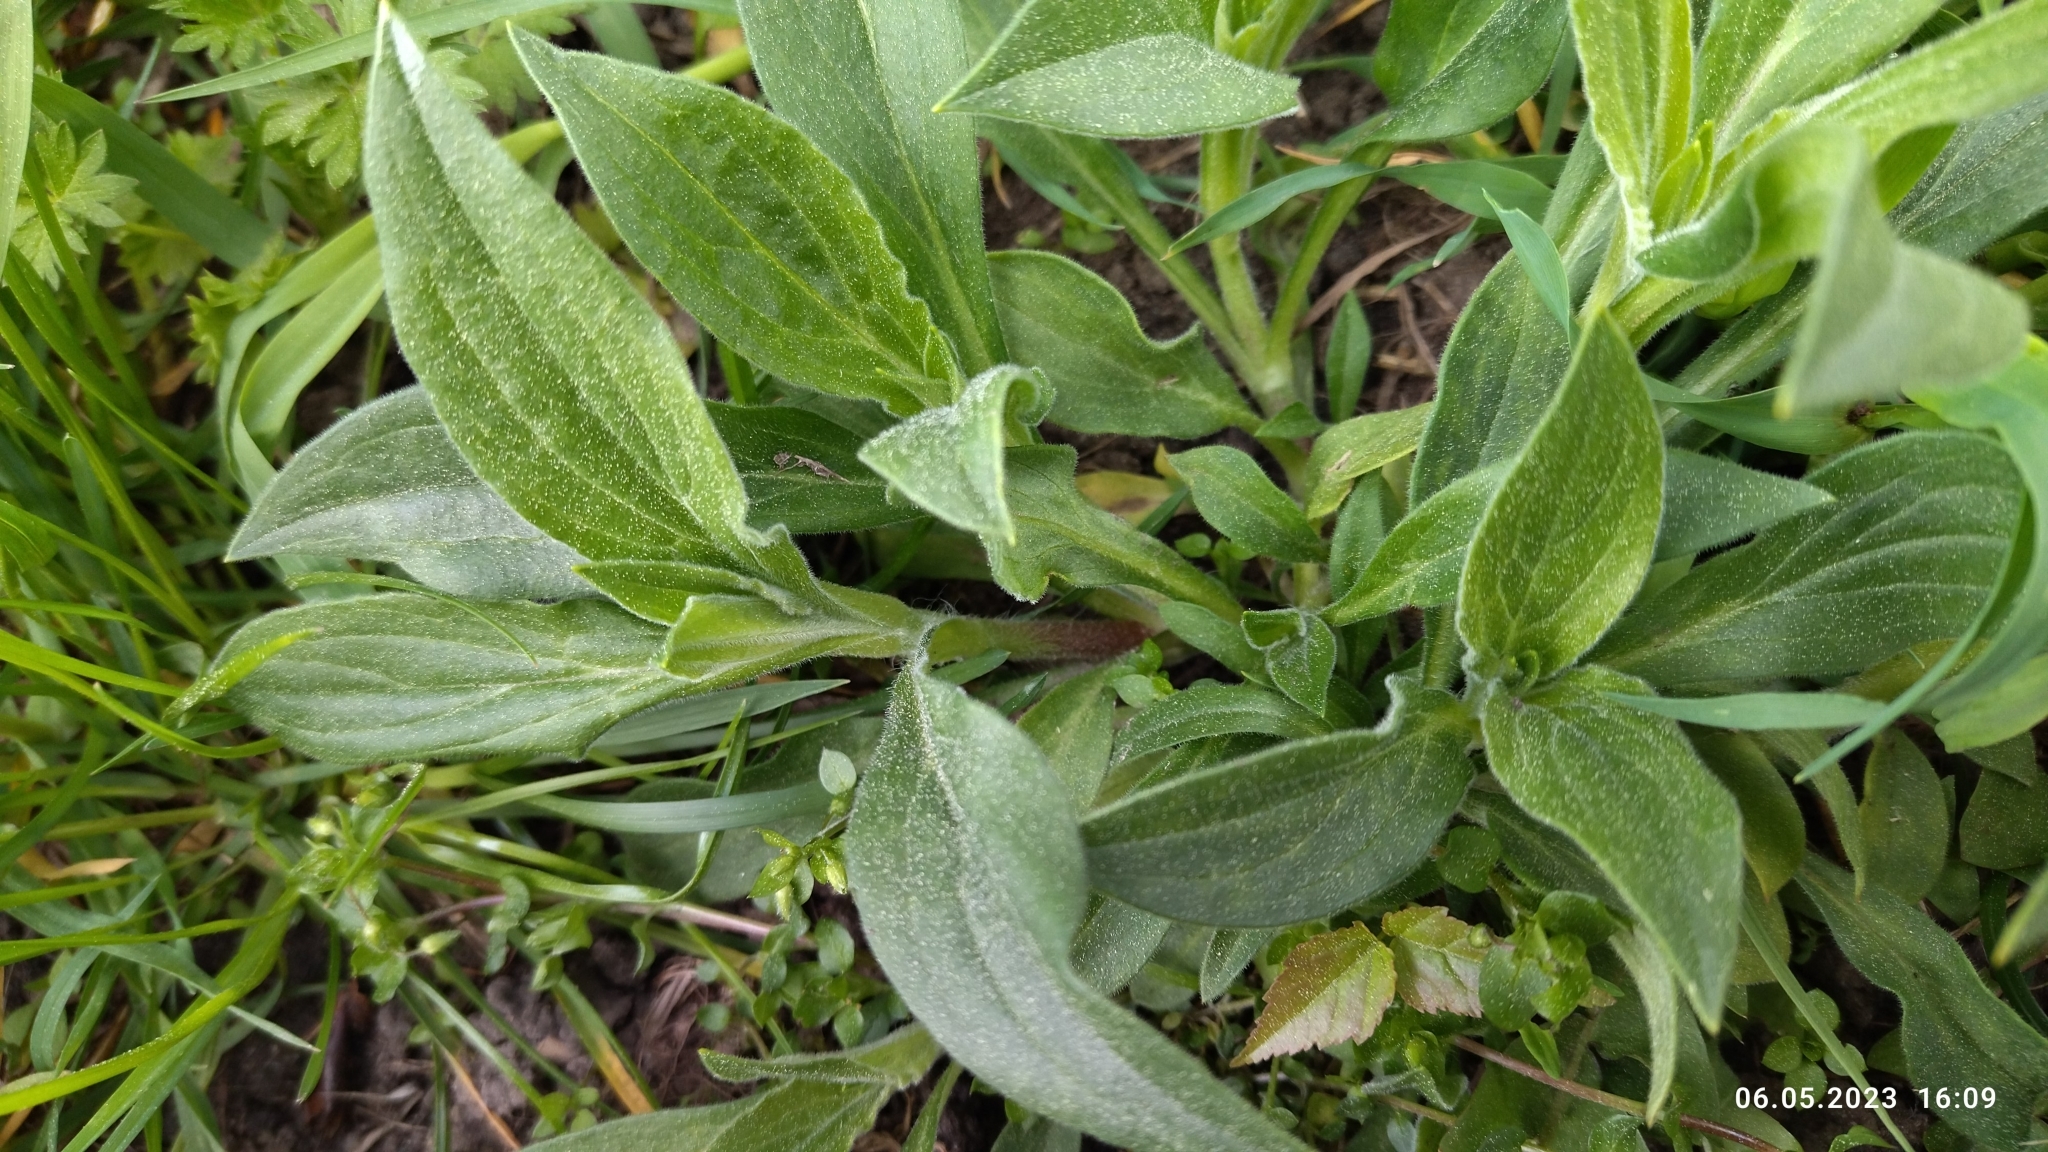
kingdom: Plantae
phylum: Tracheophyta
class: Magnoliopsida
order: Caryophyllales
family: Caryophyllaceae
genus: Silene
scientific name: Silene latifolia
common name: White campion
